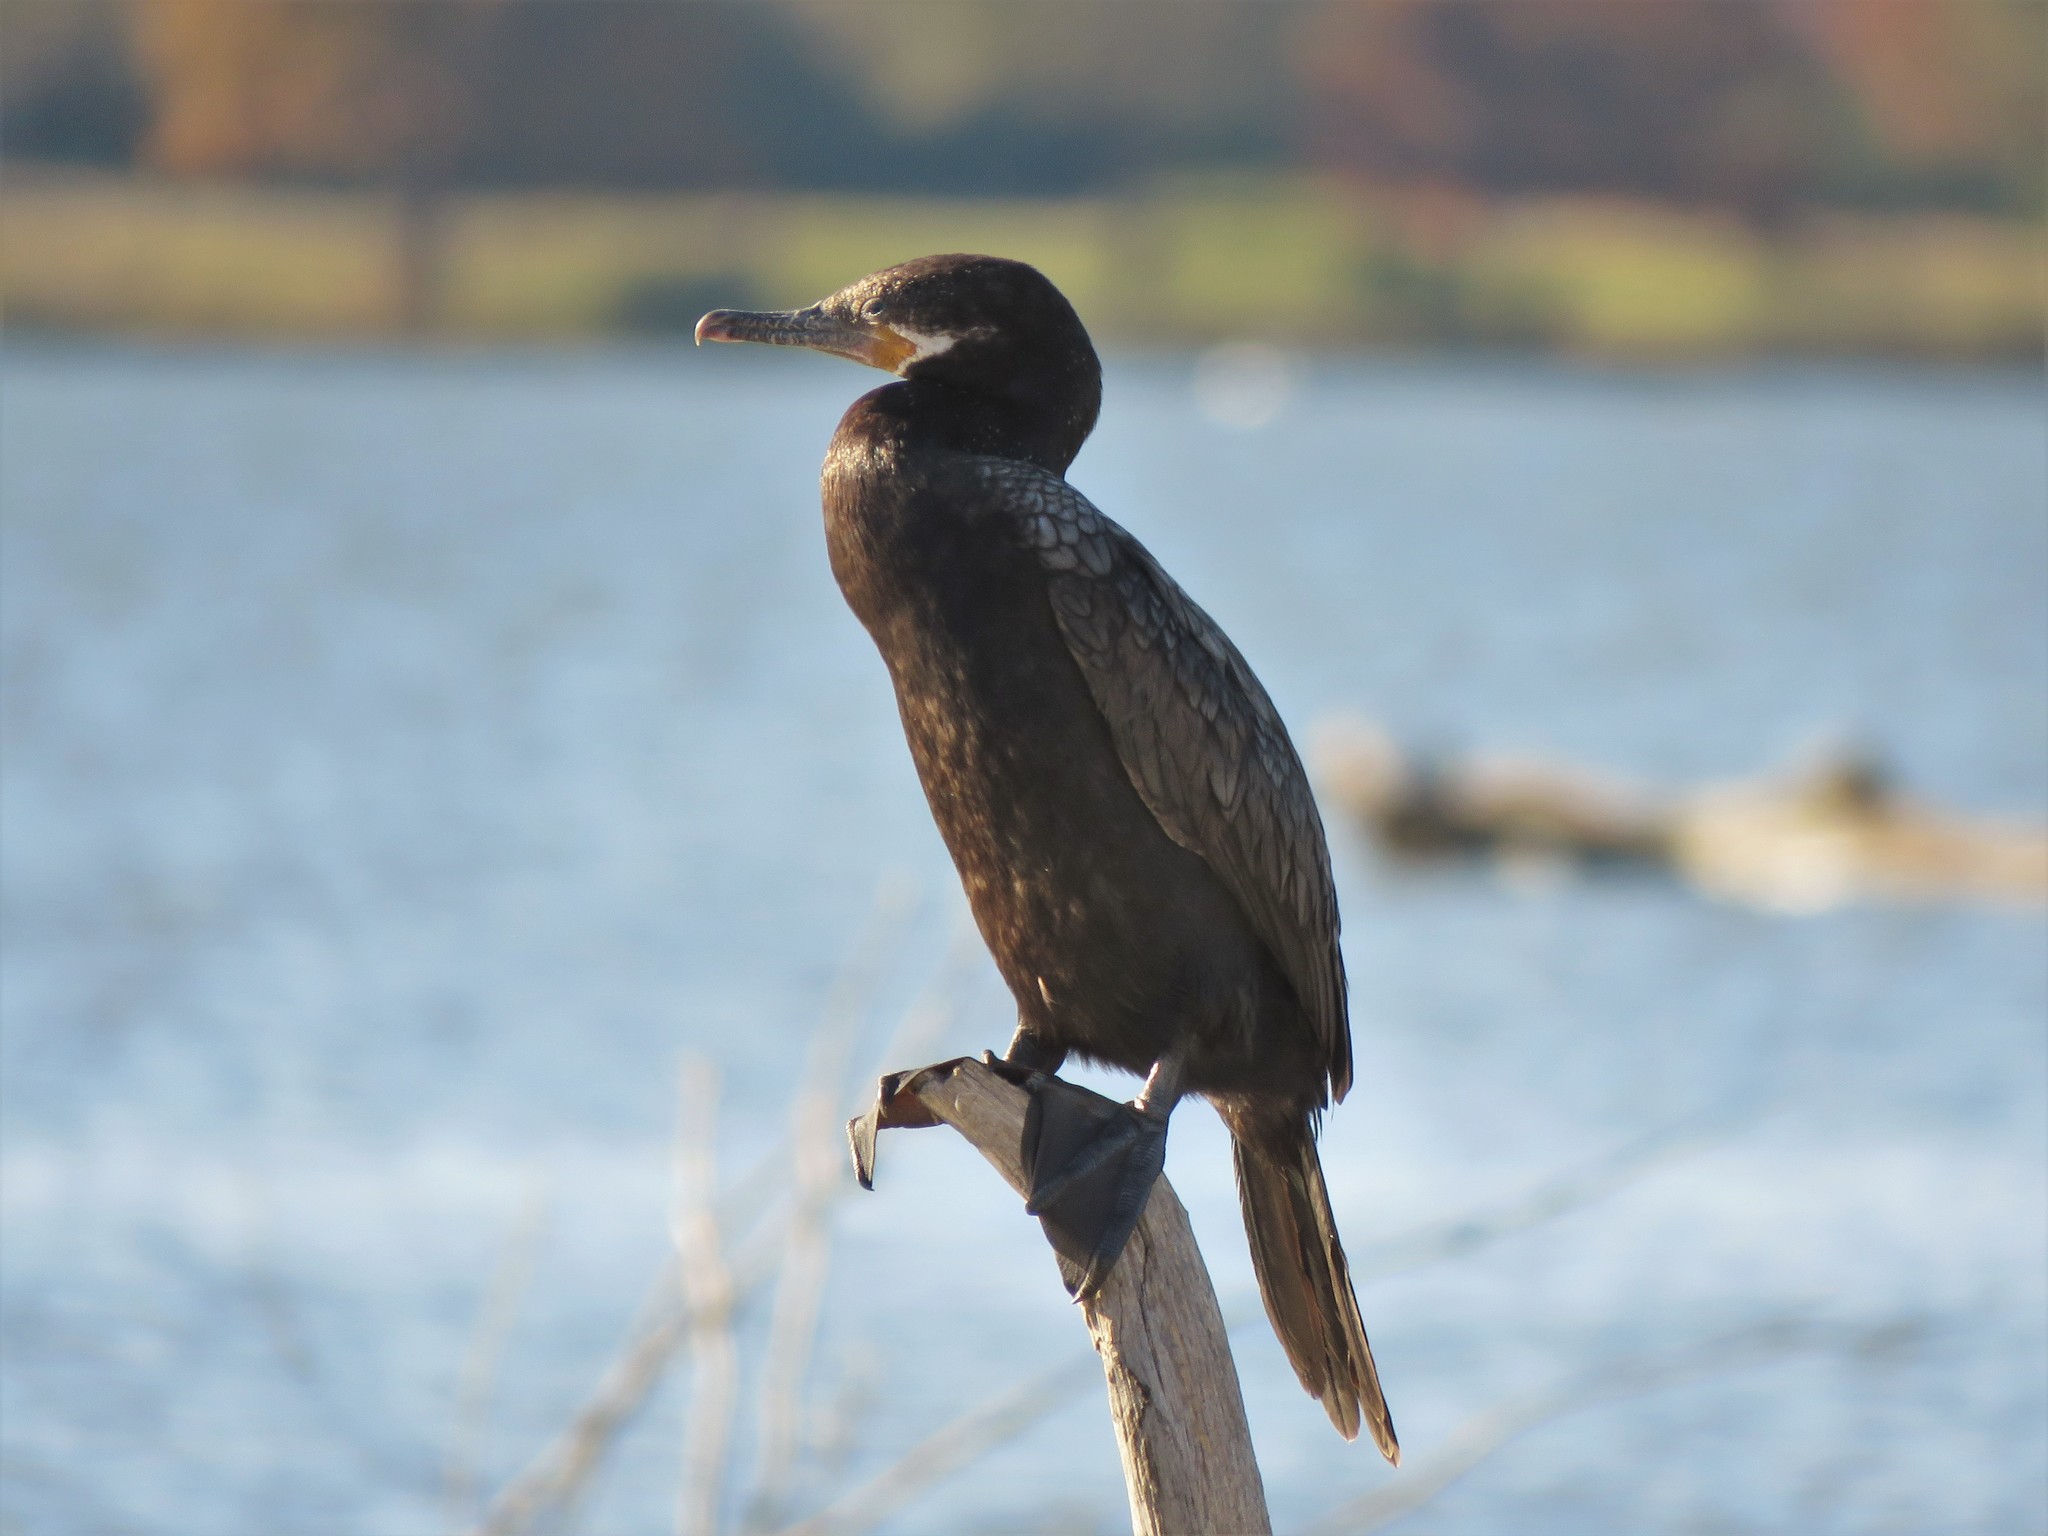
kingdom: Animalia
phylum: Chordata
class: Aves
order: Suliformes
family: Phalacrocoracidae
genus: Phalacrocorax
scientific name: Phalacrocorax brasilianus
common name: Neotropic cormorant
